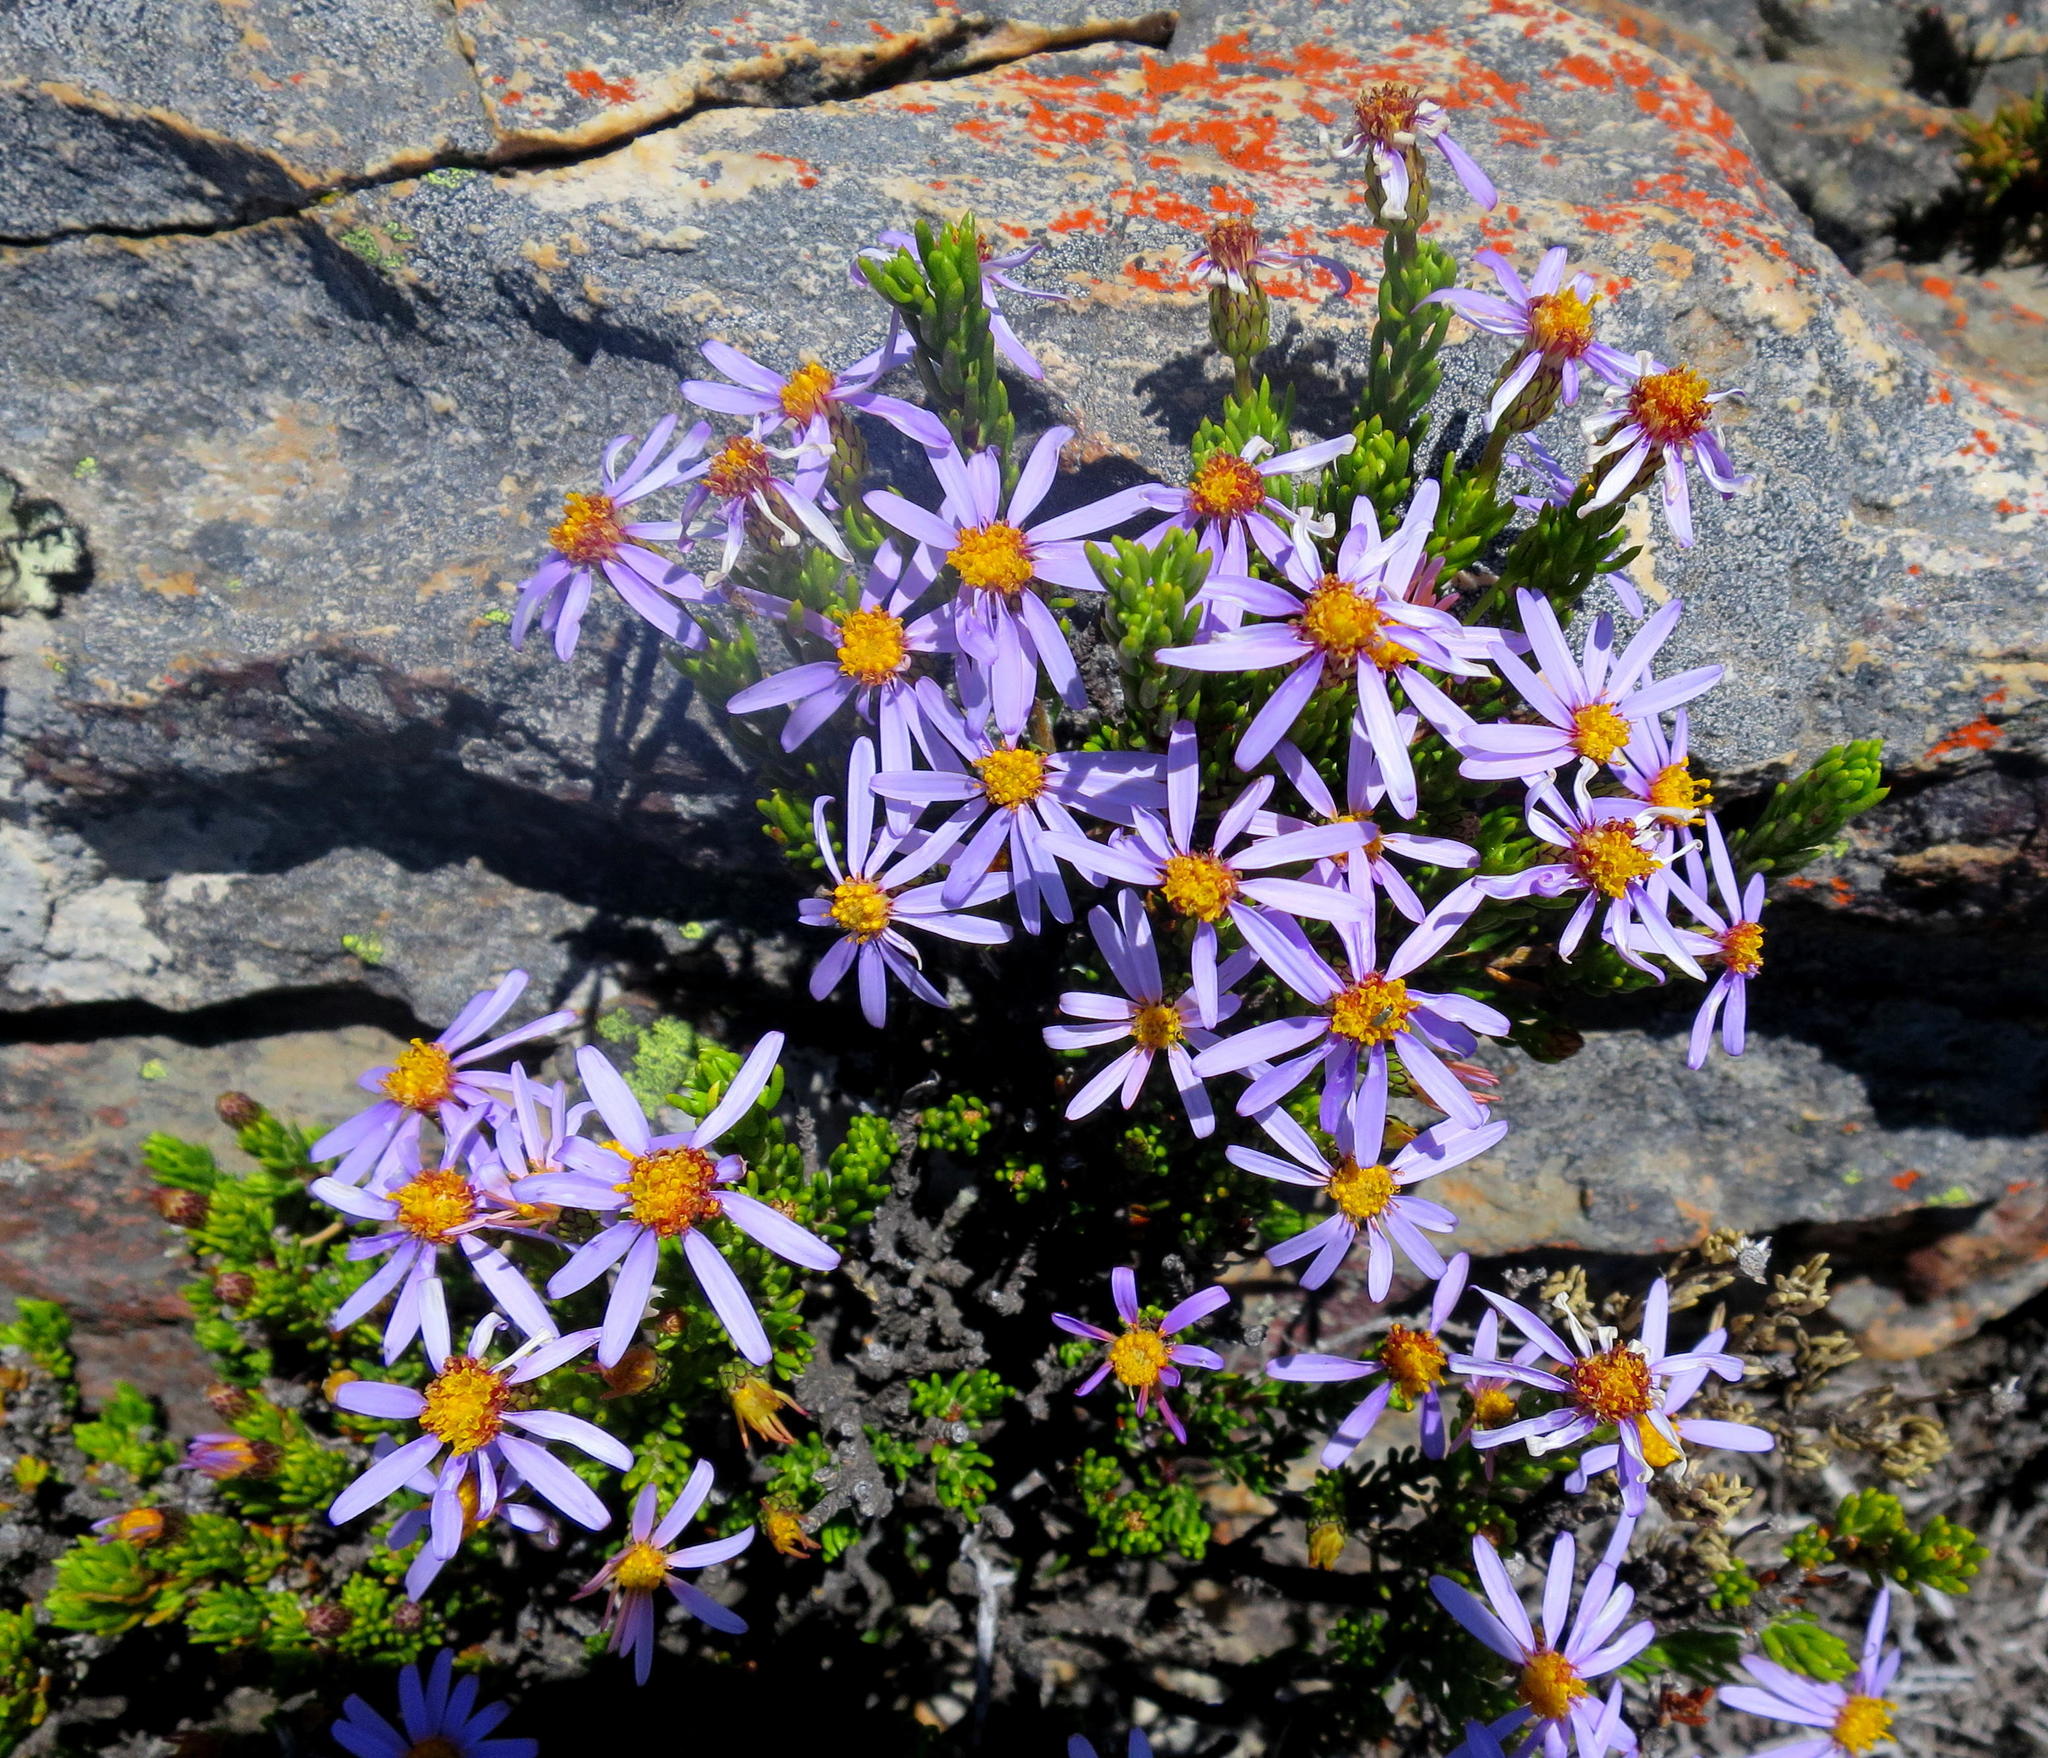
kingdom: Plantae
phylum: Tracheophyta
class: Magnoliopsida
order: Asterales
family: Asteraceae
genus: Felicia
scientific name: Felicia oleosa
